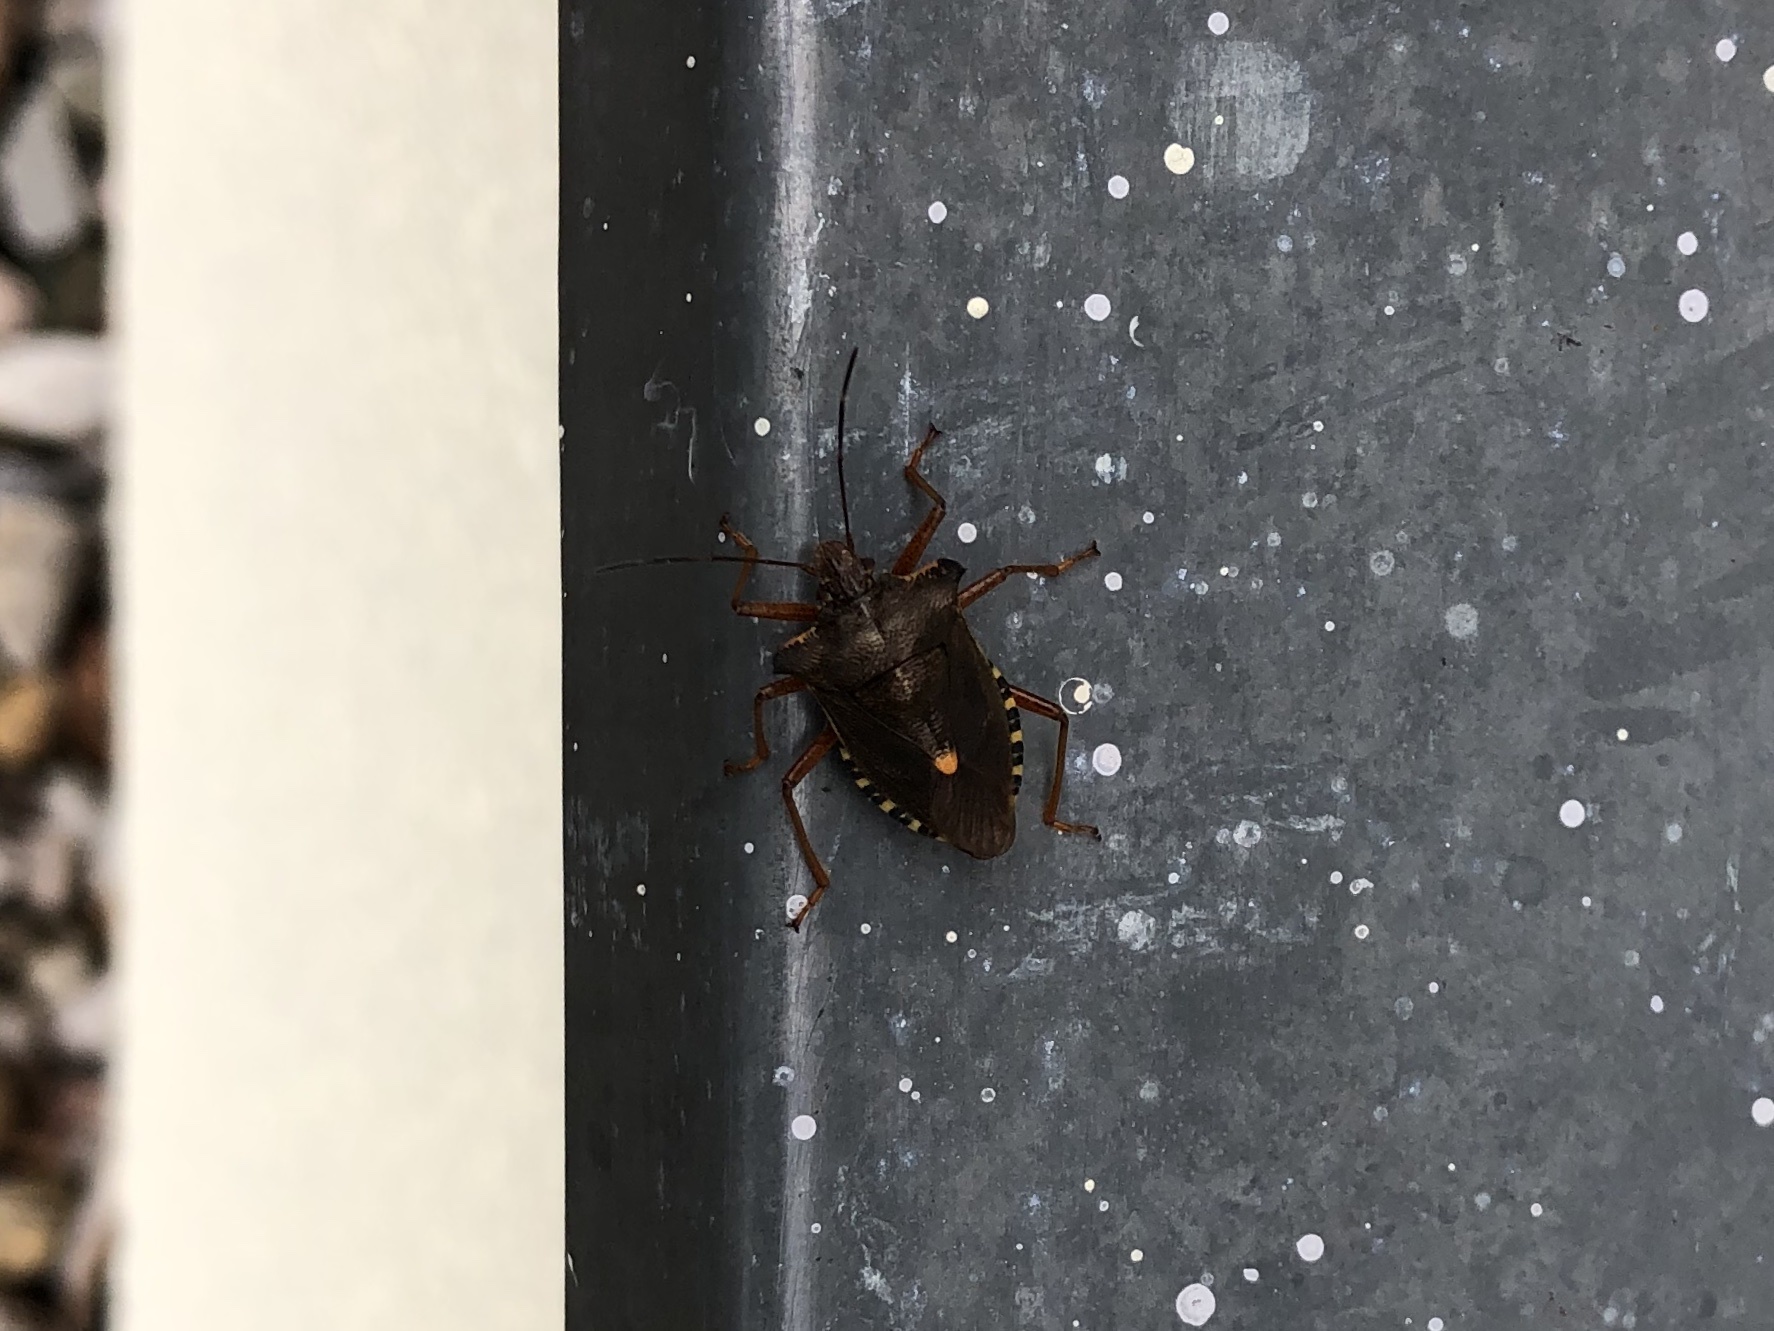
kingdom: Animalia
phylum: Arthropoda
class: Insecta
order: Hemiptera
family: Pentatomidae
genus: Pentatoma
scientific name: Pentatoma rufipes
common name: Forest bug
